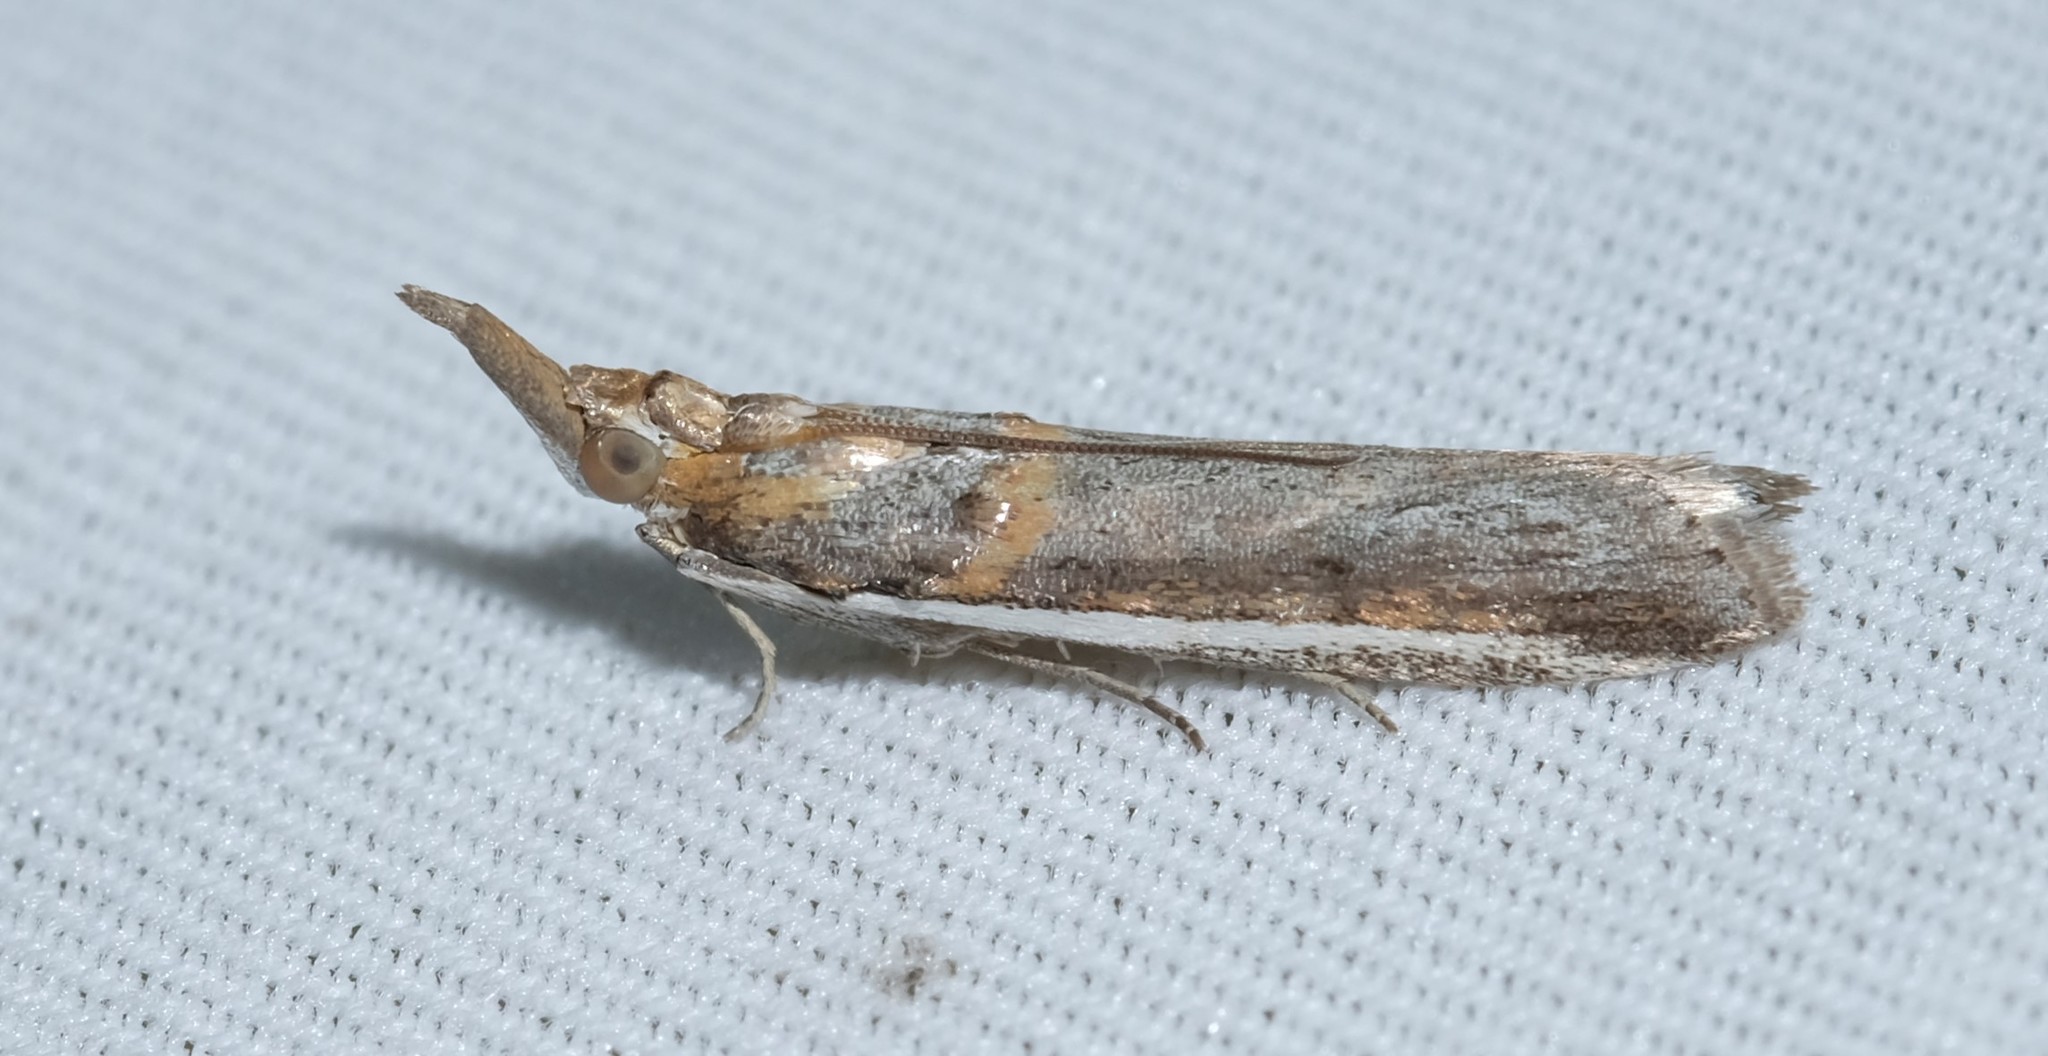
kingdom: Animalia
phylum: Arthropoda
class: Insecta
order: Lepidoptera
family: Pyralidae
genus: Etiella
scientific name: Etiella behrii
